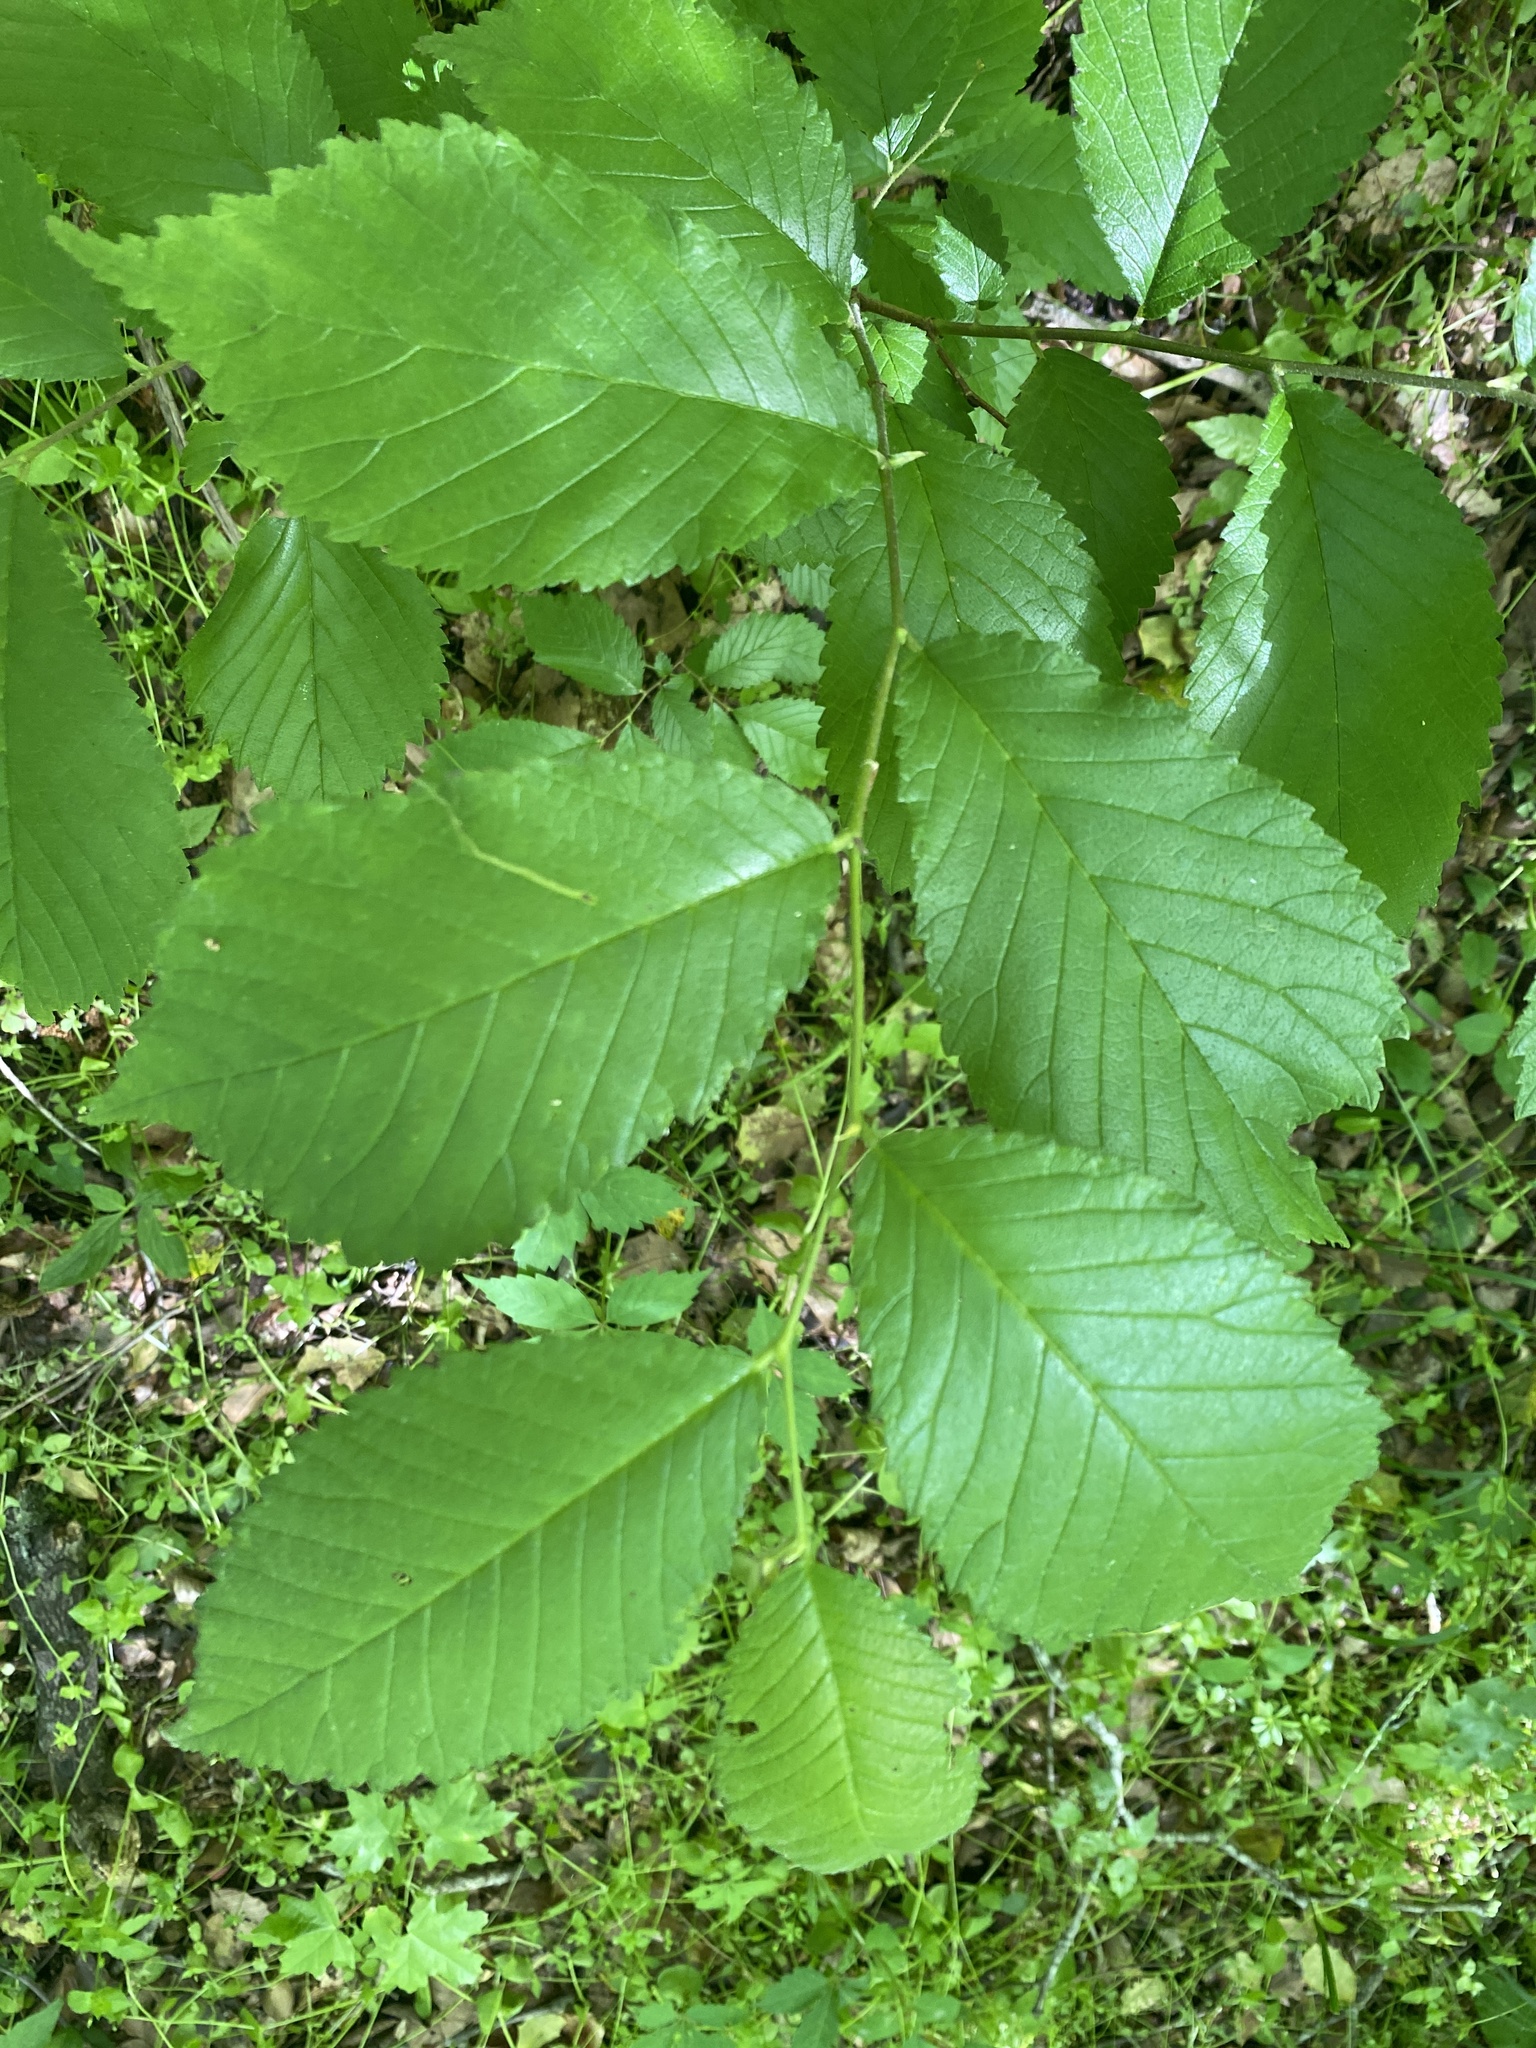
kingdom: Plantae
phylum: Tracheophyta
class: Magnoliopsida
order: Rosales
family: Ulmaceae
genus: Ulmus
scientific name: Ulmus rubra
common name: Slippery elm
